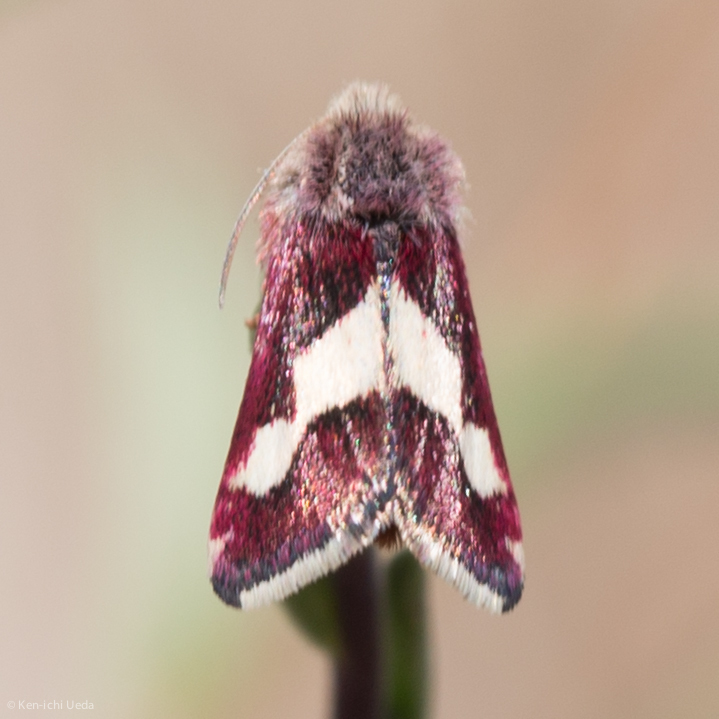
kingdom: Animalia
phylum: Arthropoda
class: Insecta
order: Lepidoptera
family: Noctuidae
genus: Microhelia
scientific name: Microhelia angelica
